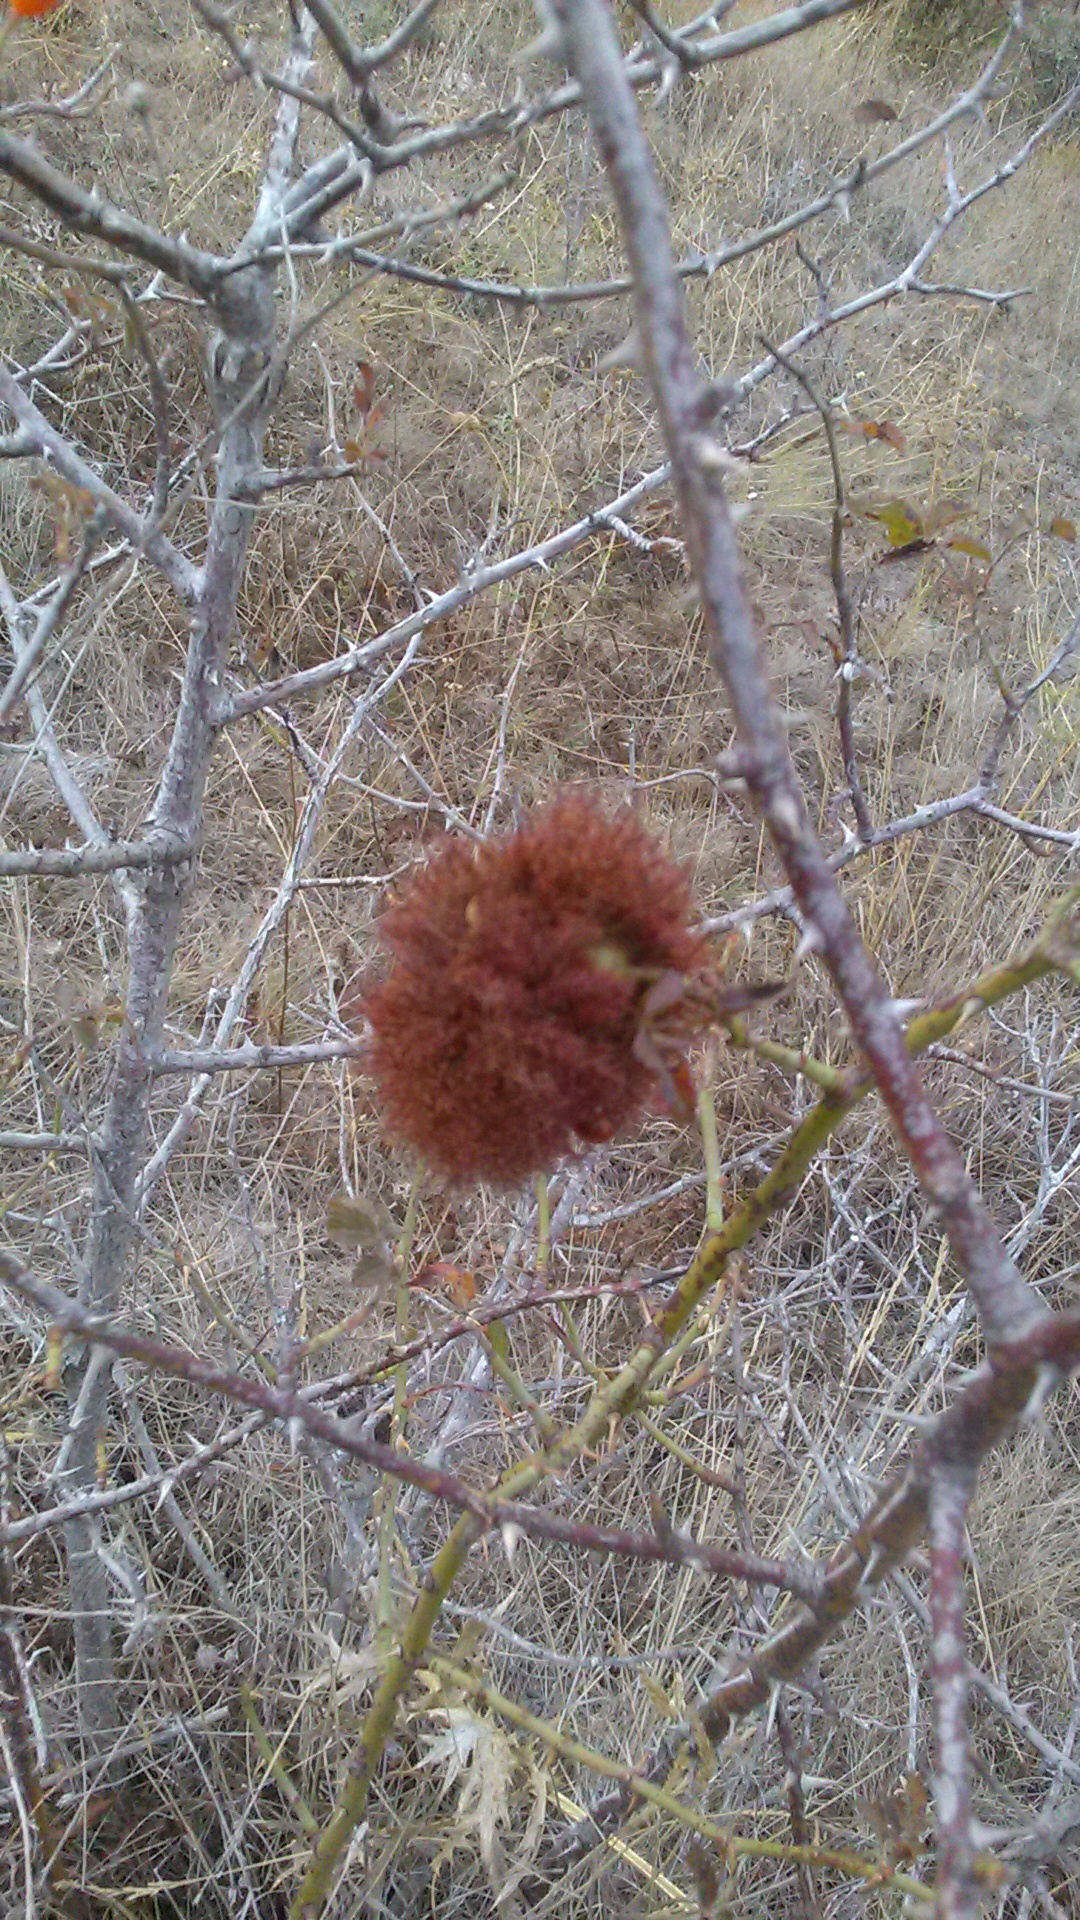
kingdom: Animalia
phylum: Arthropoda
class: Insecta
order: Hymenoptera
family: Cynipidae
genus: Diplolepis
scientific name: Diplolepis rosae
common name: Bedeguar gall
